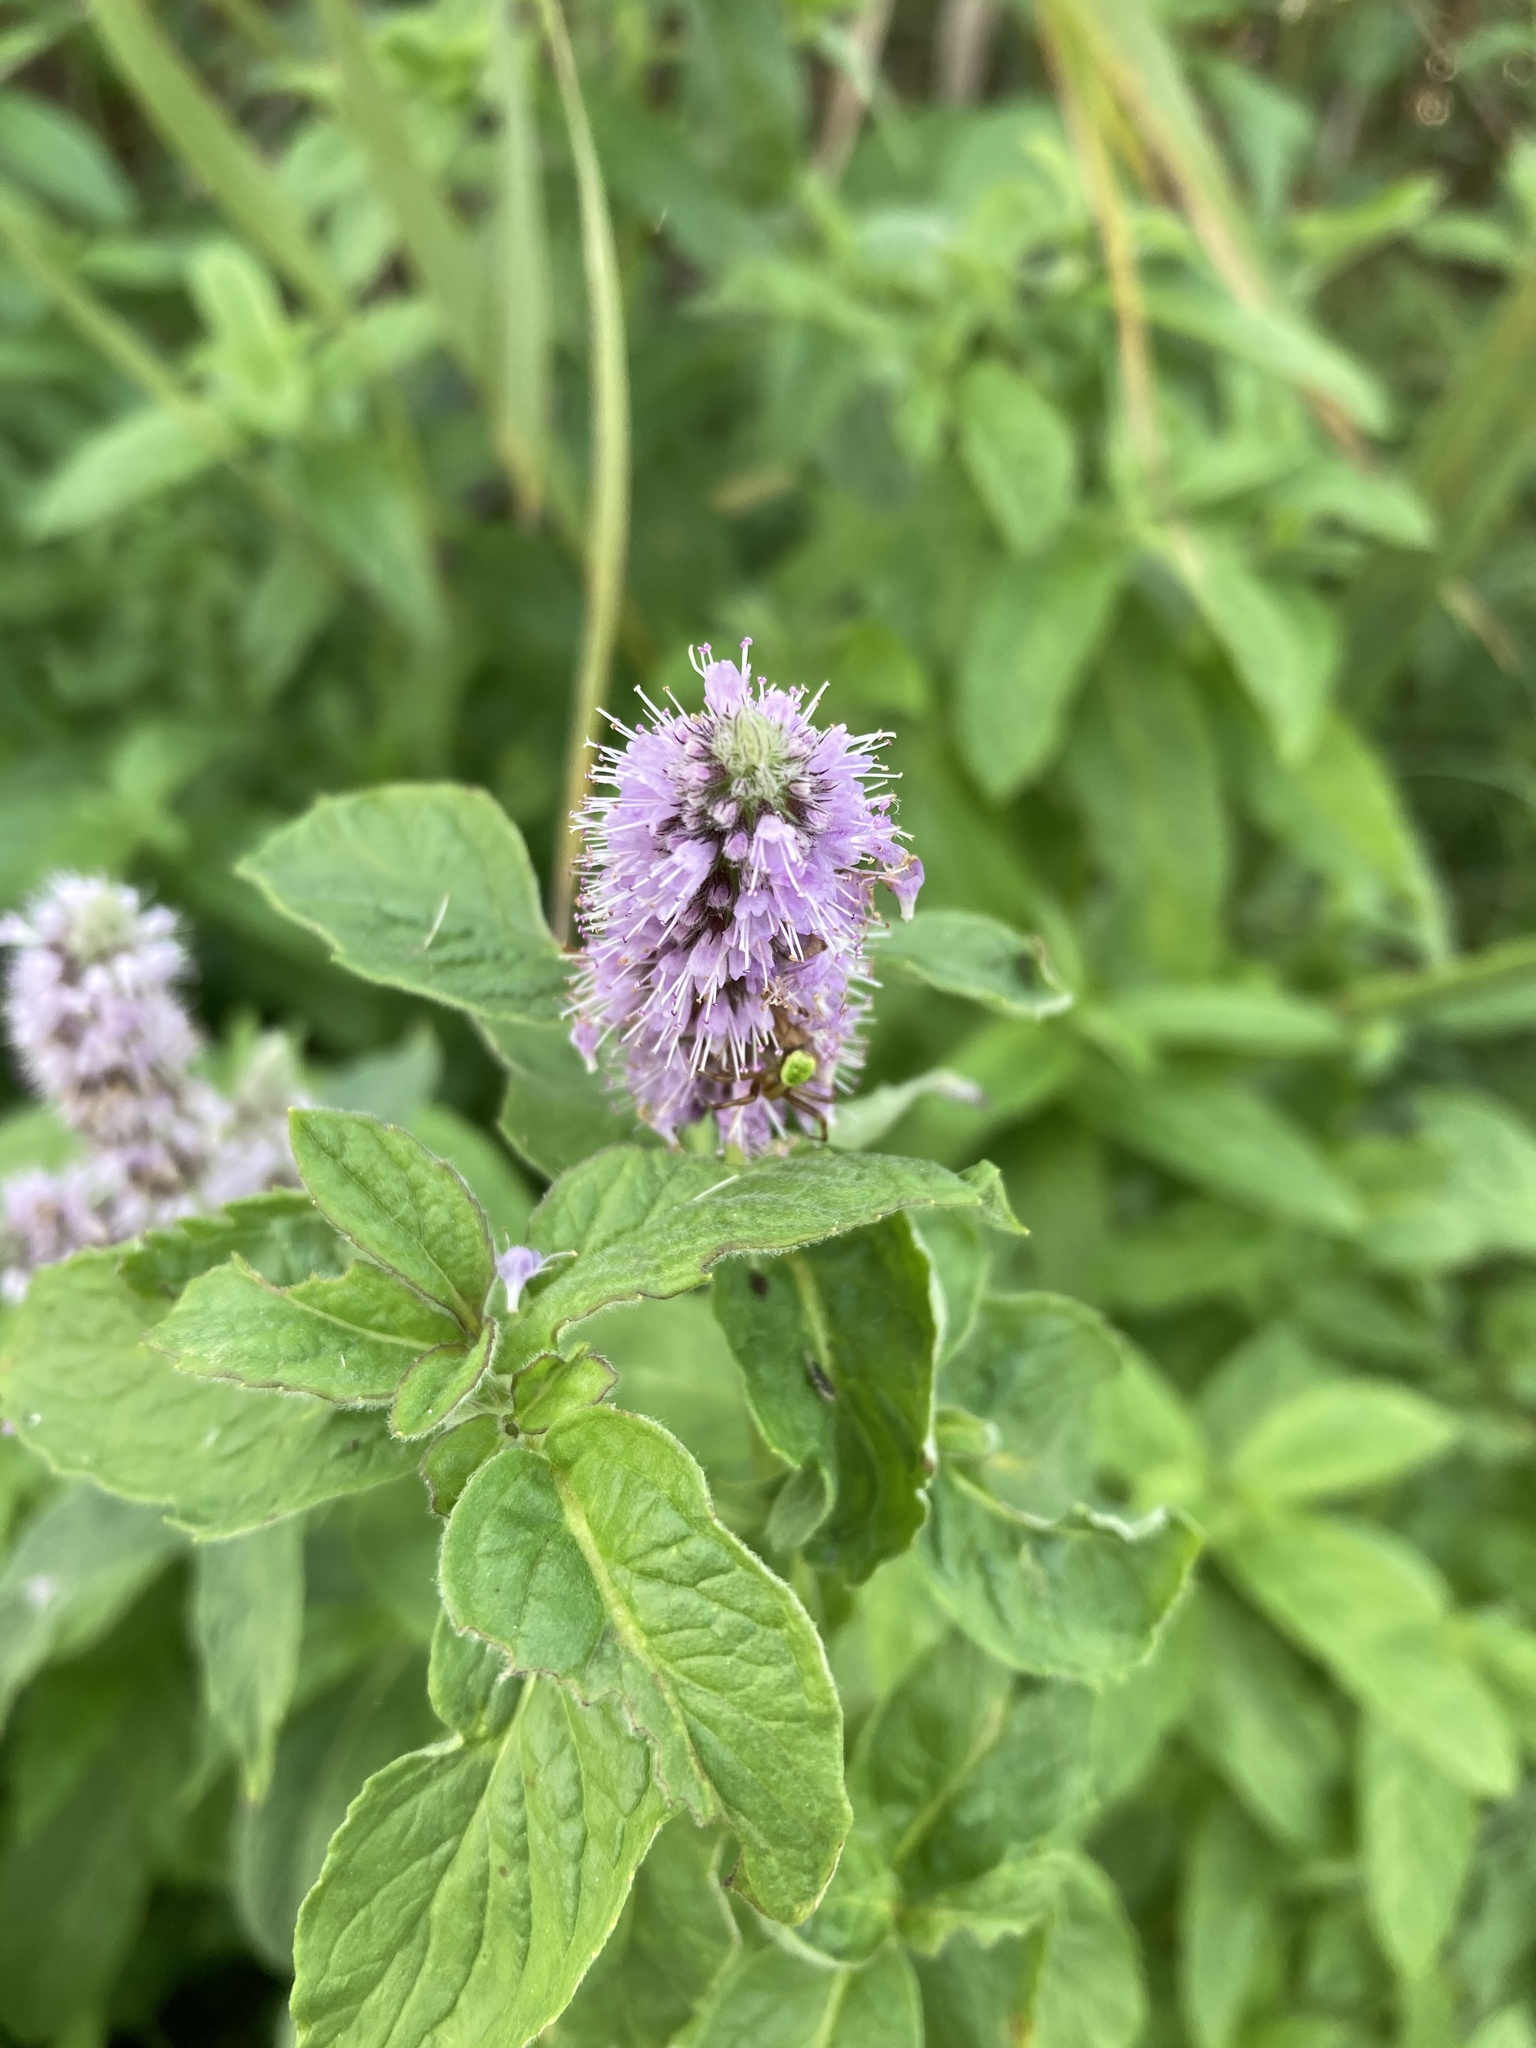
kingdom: Plantae
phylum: Tracheophyta
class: Magnoliopsida
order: Lamiales
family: Lamiaceae
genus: Mentha
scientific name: Mentha longifolia
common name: Horse mint
